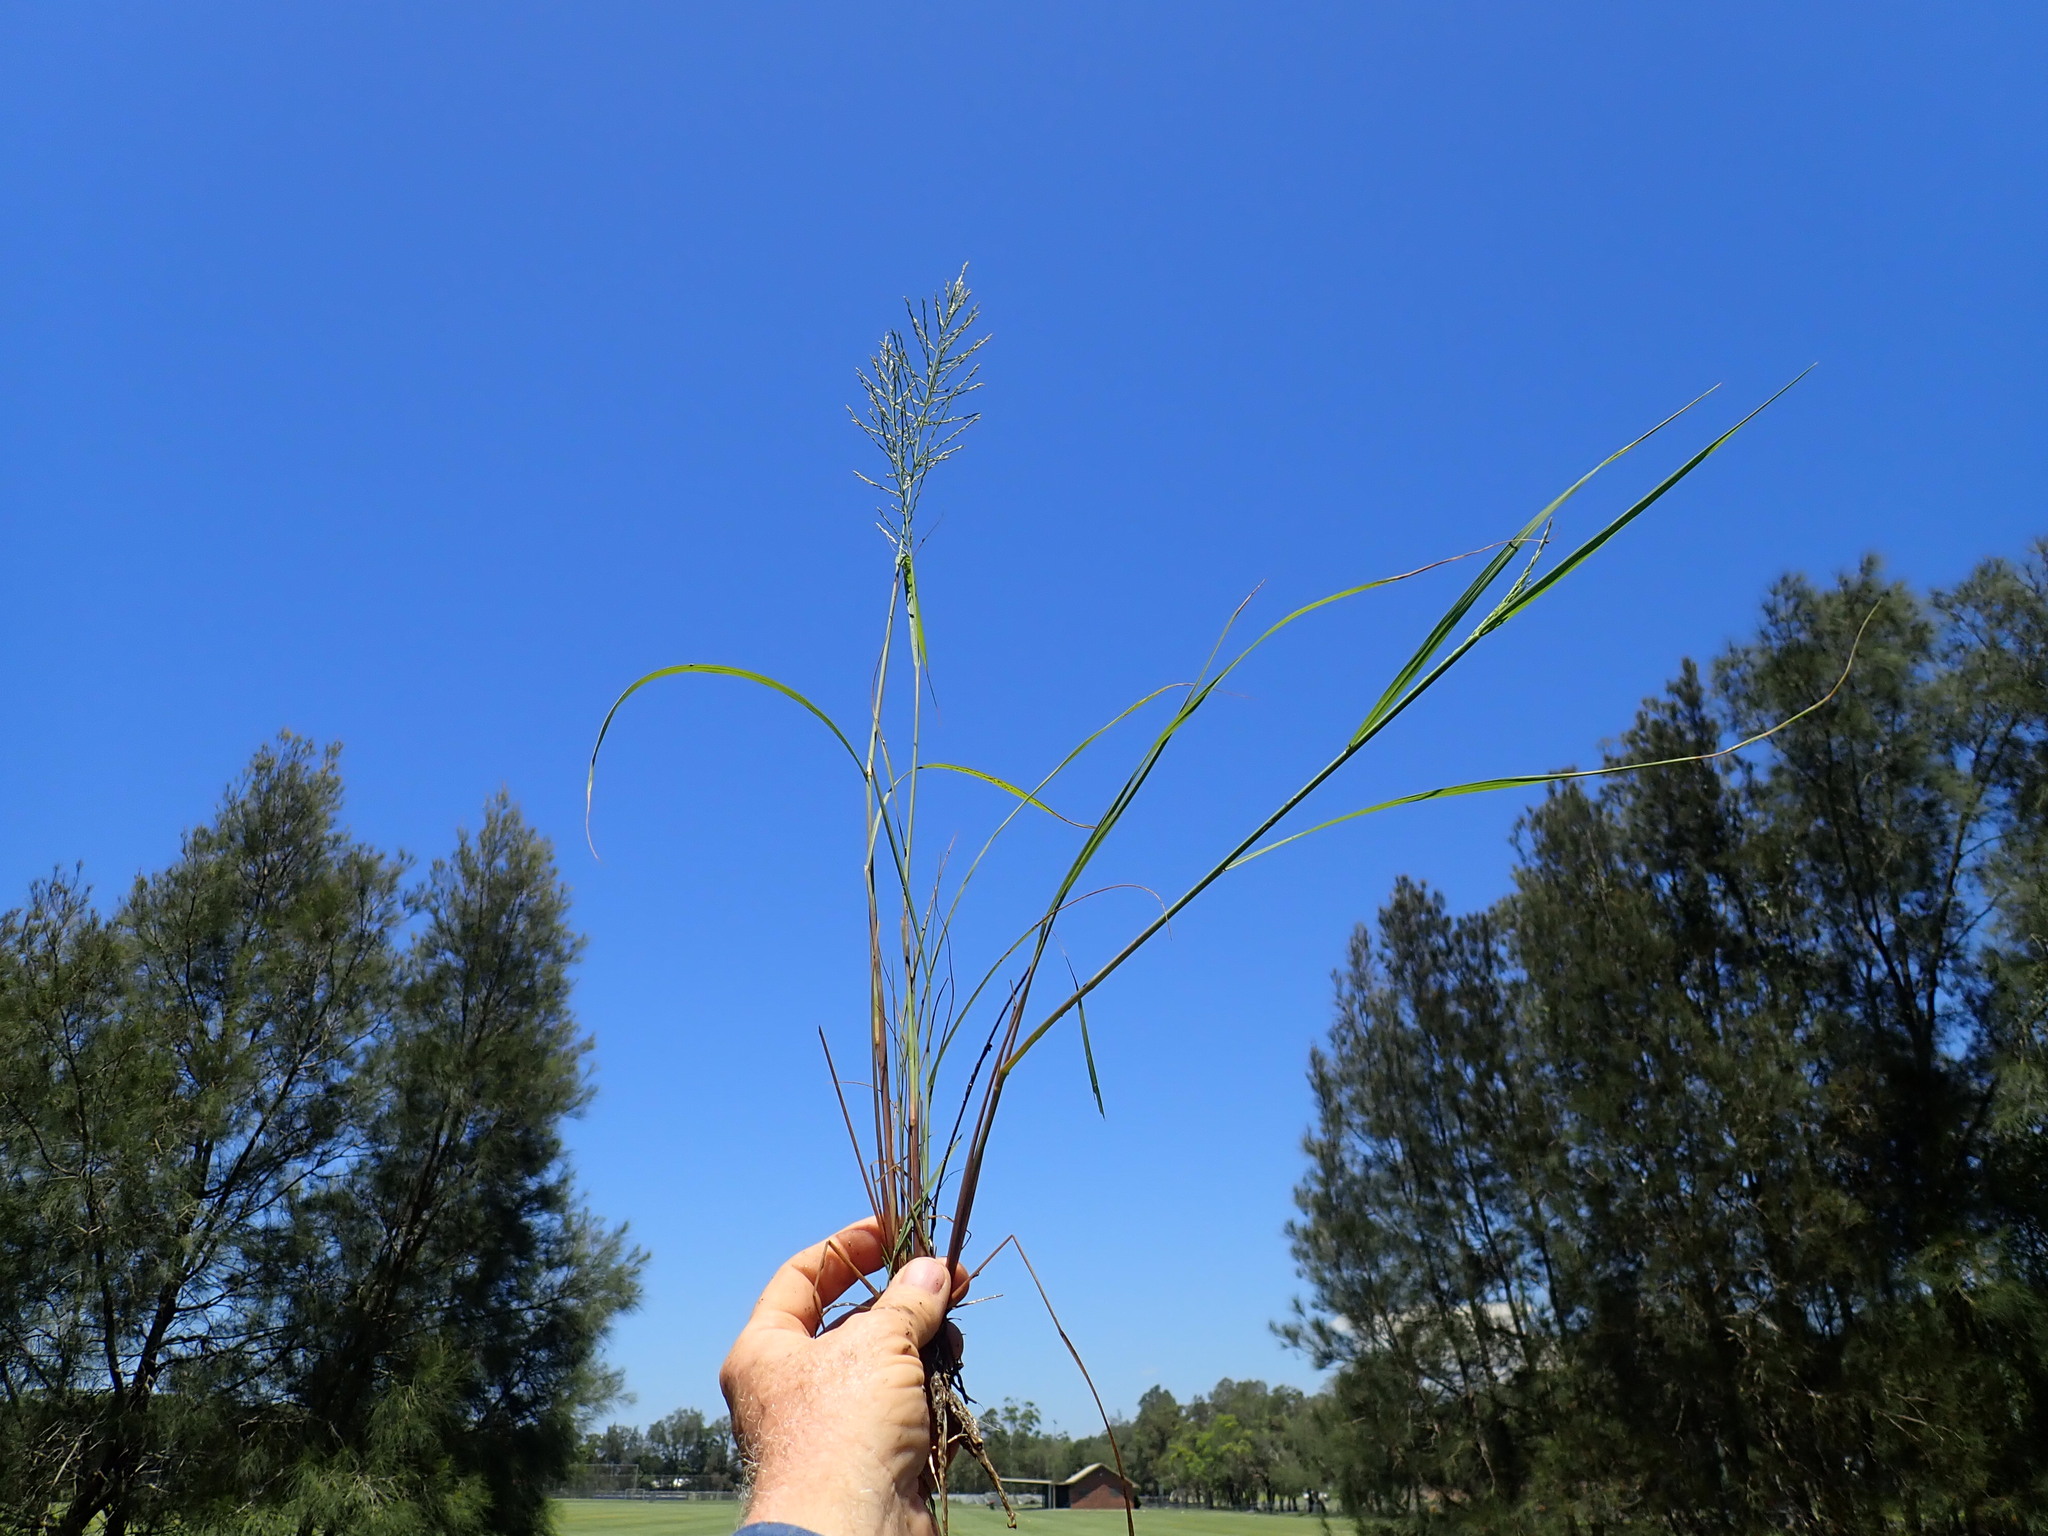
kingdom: Plantae
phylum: Tracheophyta
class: Liliopsida
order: Poales
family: Poaceae
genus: Diplachne
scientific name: Diplachne fusca
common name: Brown beetle grass
